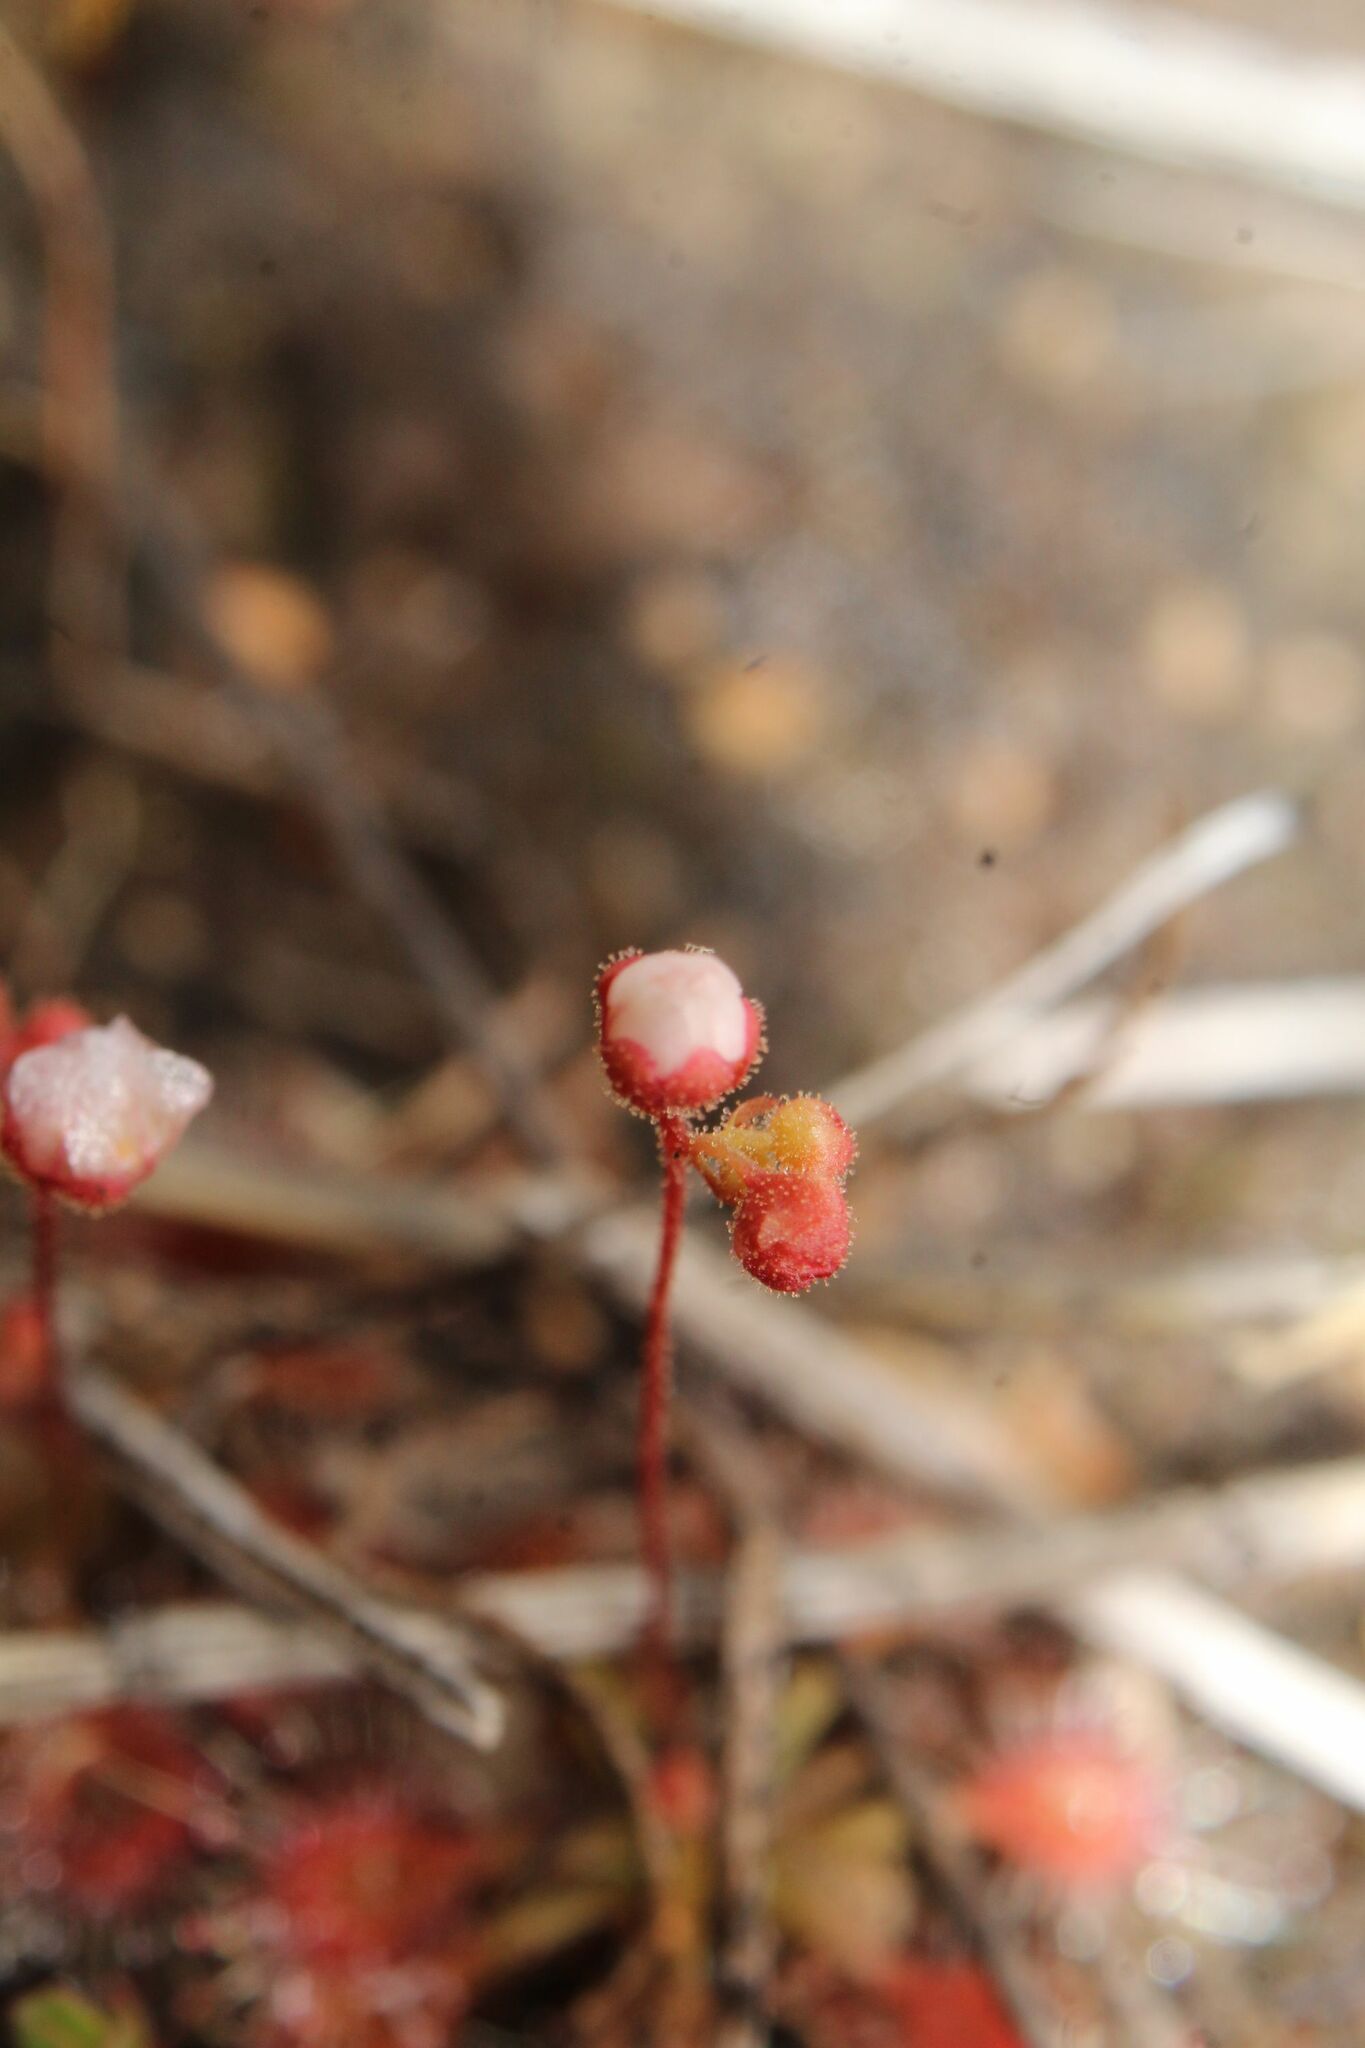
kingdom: Plantae
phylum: Tracheophyta
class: Magnoliopsida
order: Caryophyllales
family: Droseraceae
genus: Drosera
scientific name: Drosera nitidula
